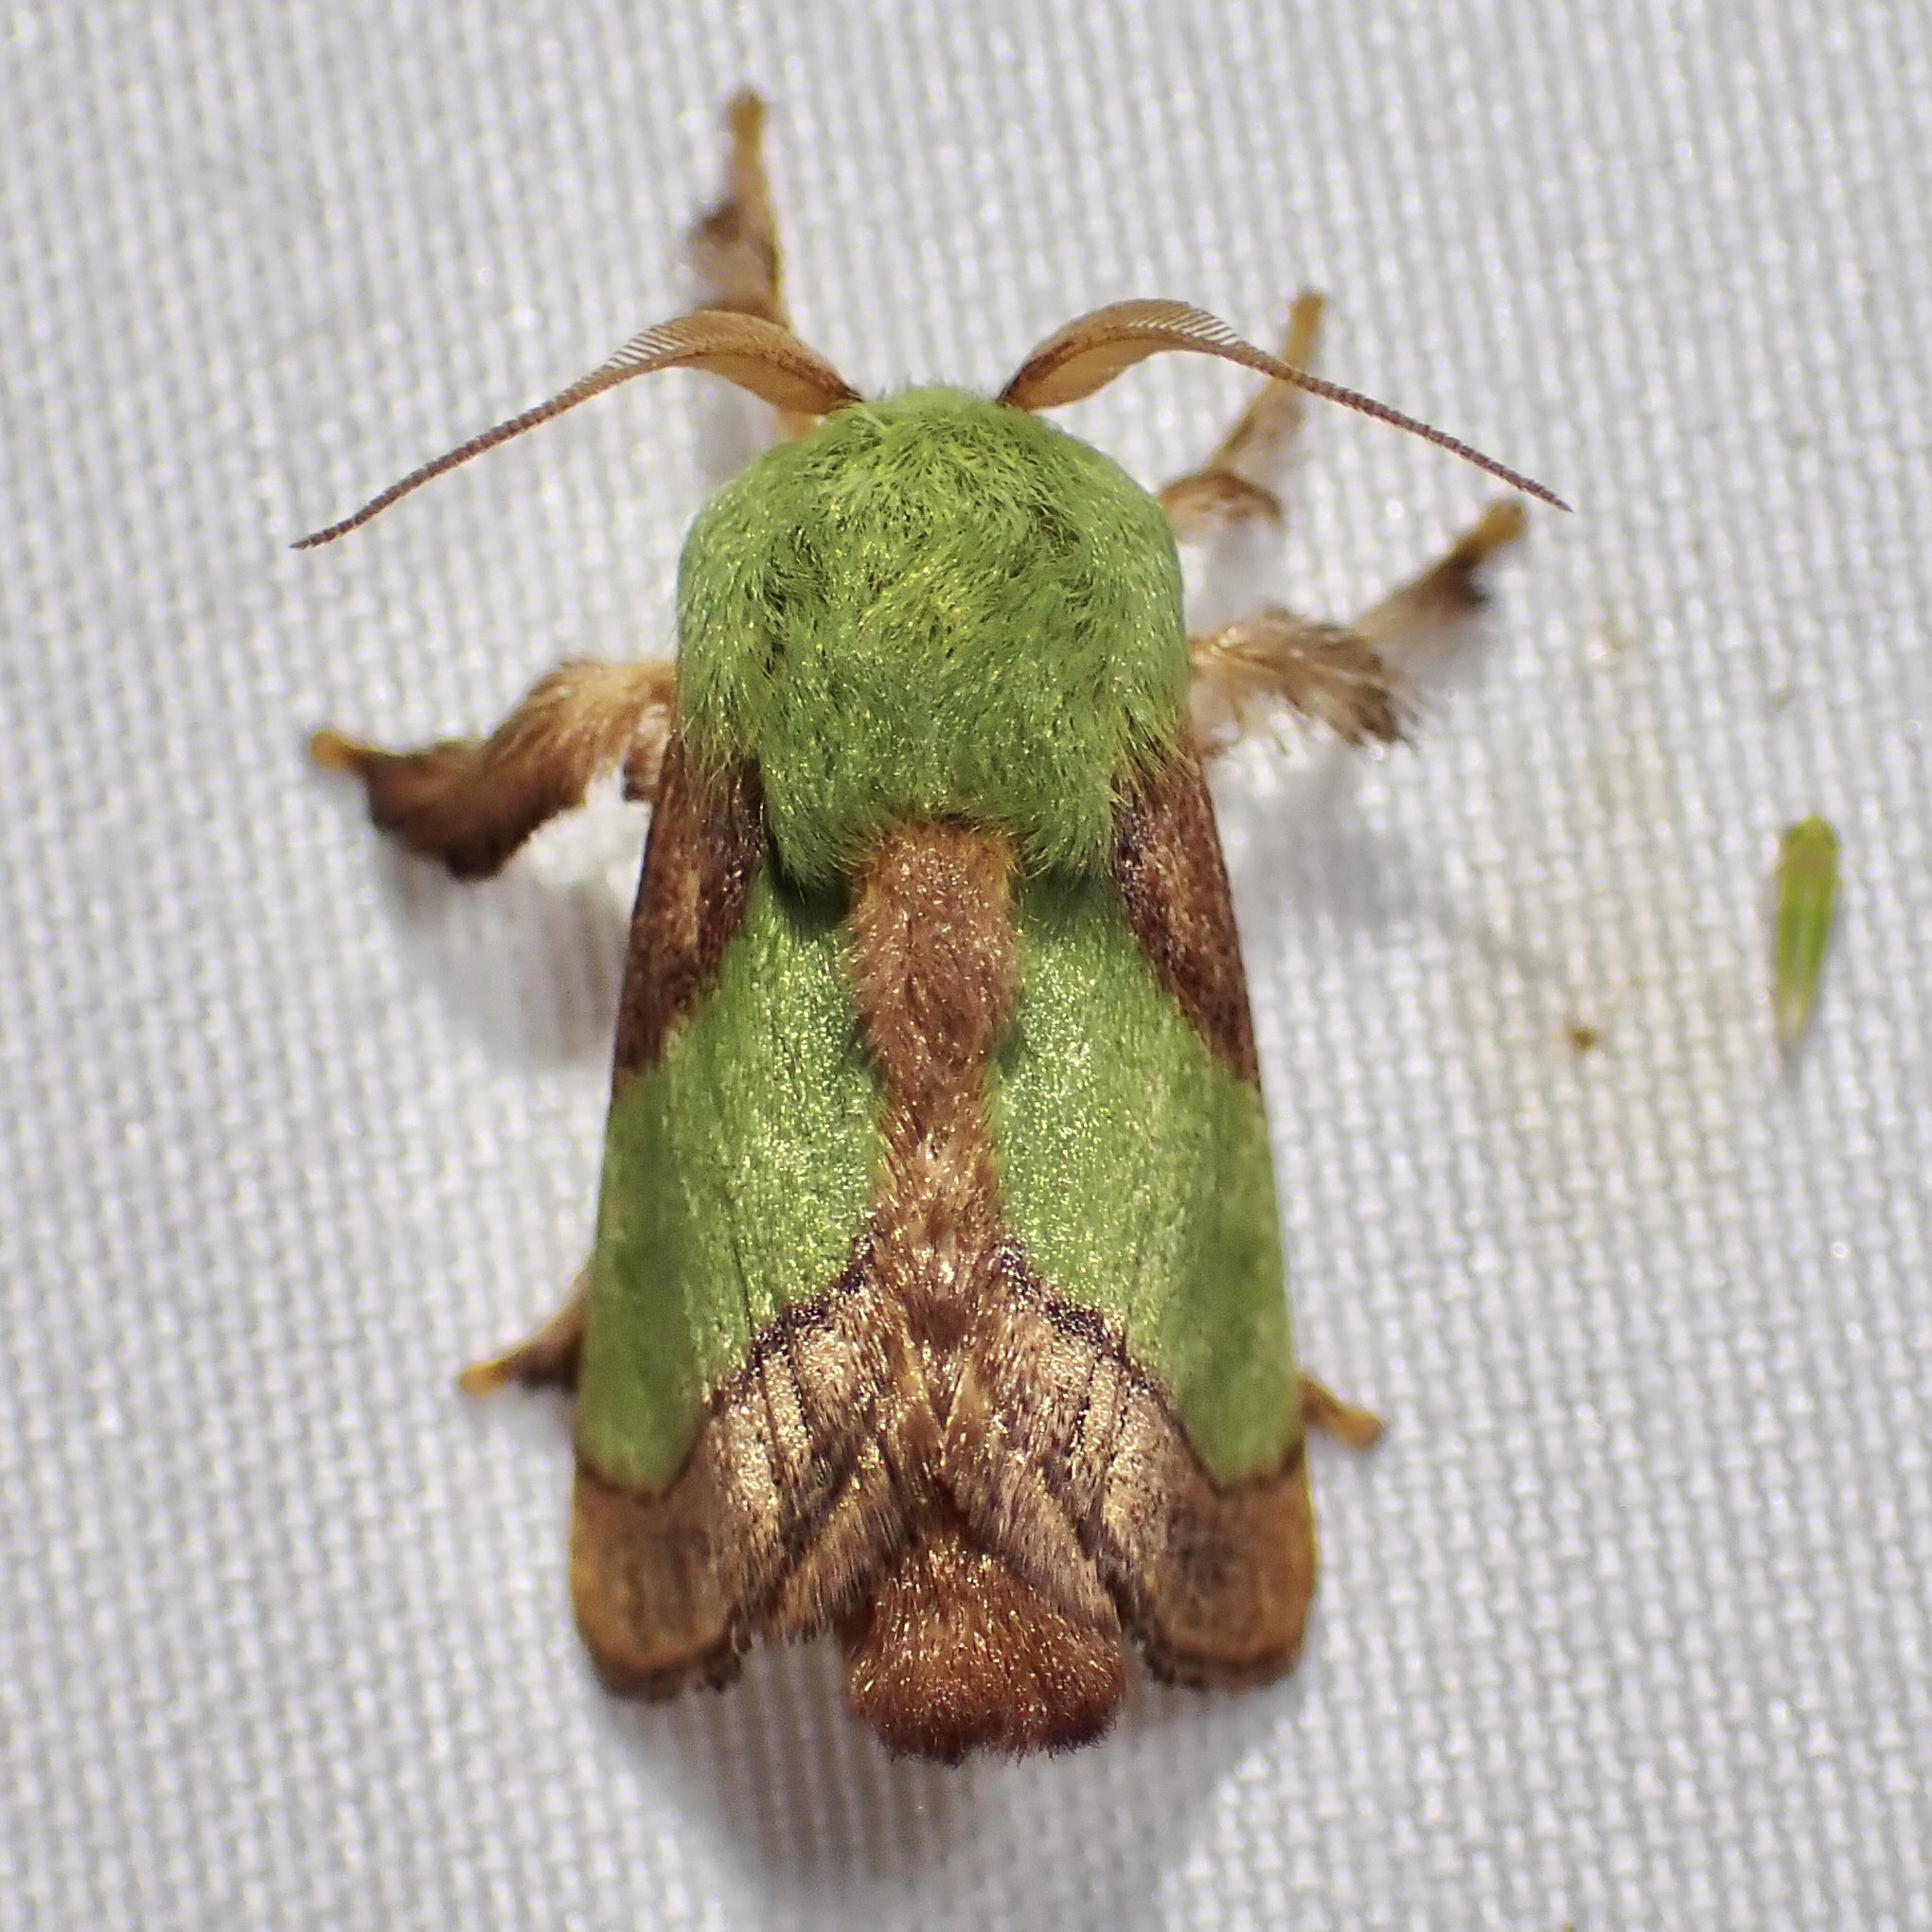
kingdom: Animalia
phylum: Arthropoda
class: Insecta
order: Lepidoptera
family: Limacodidae
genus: Parasa
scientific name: Parasa chloris
